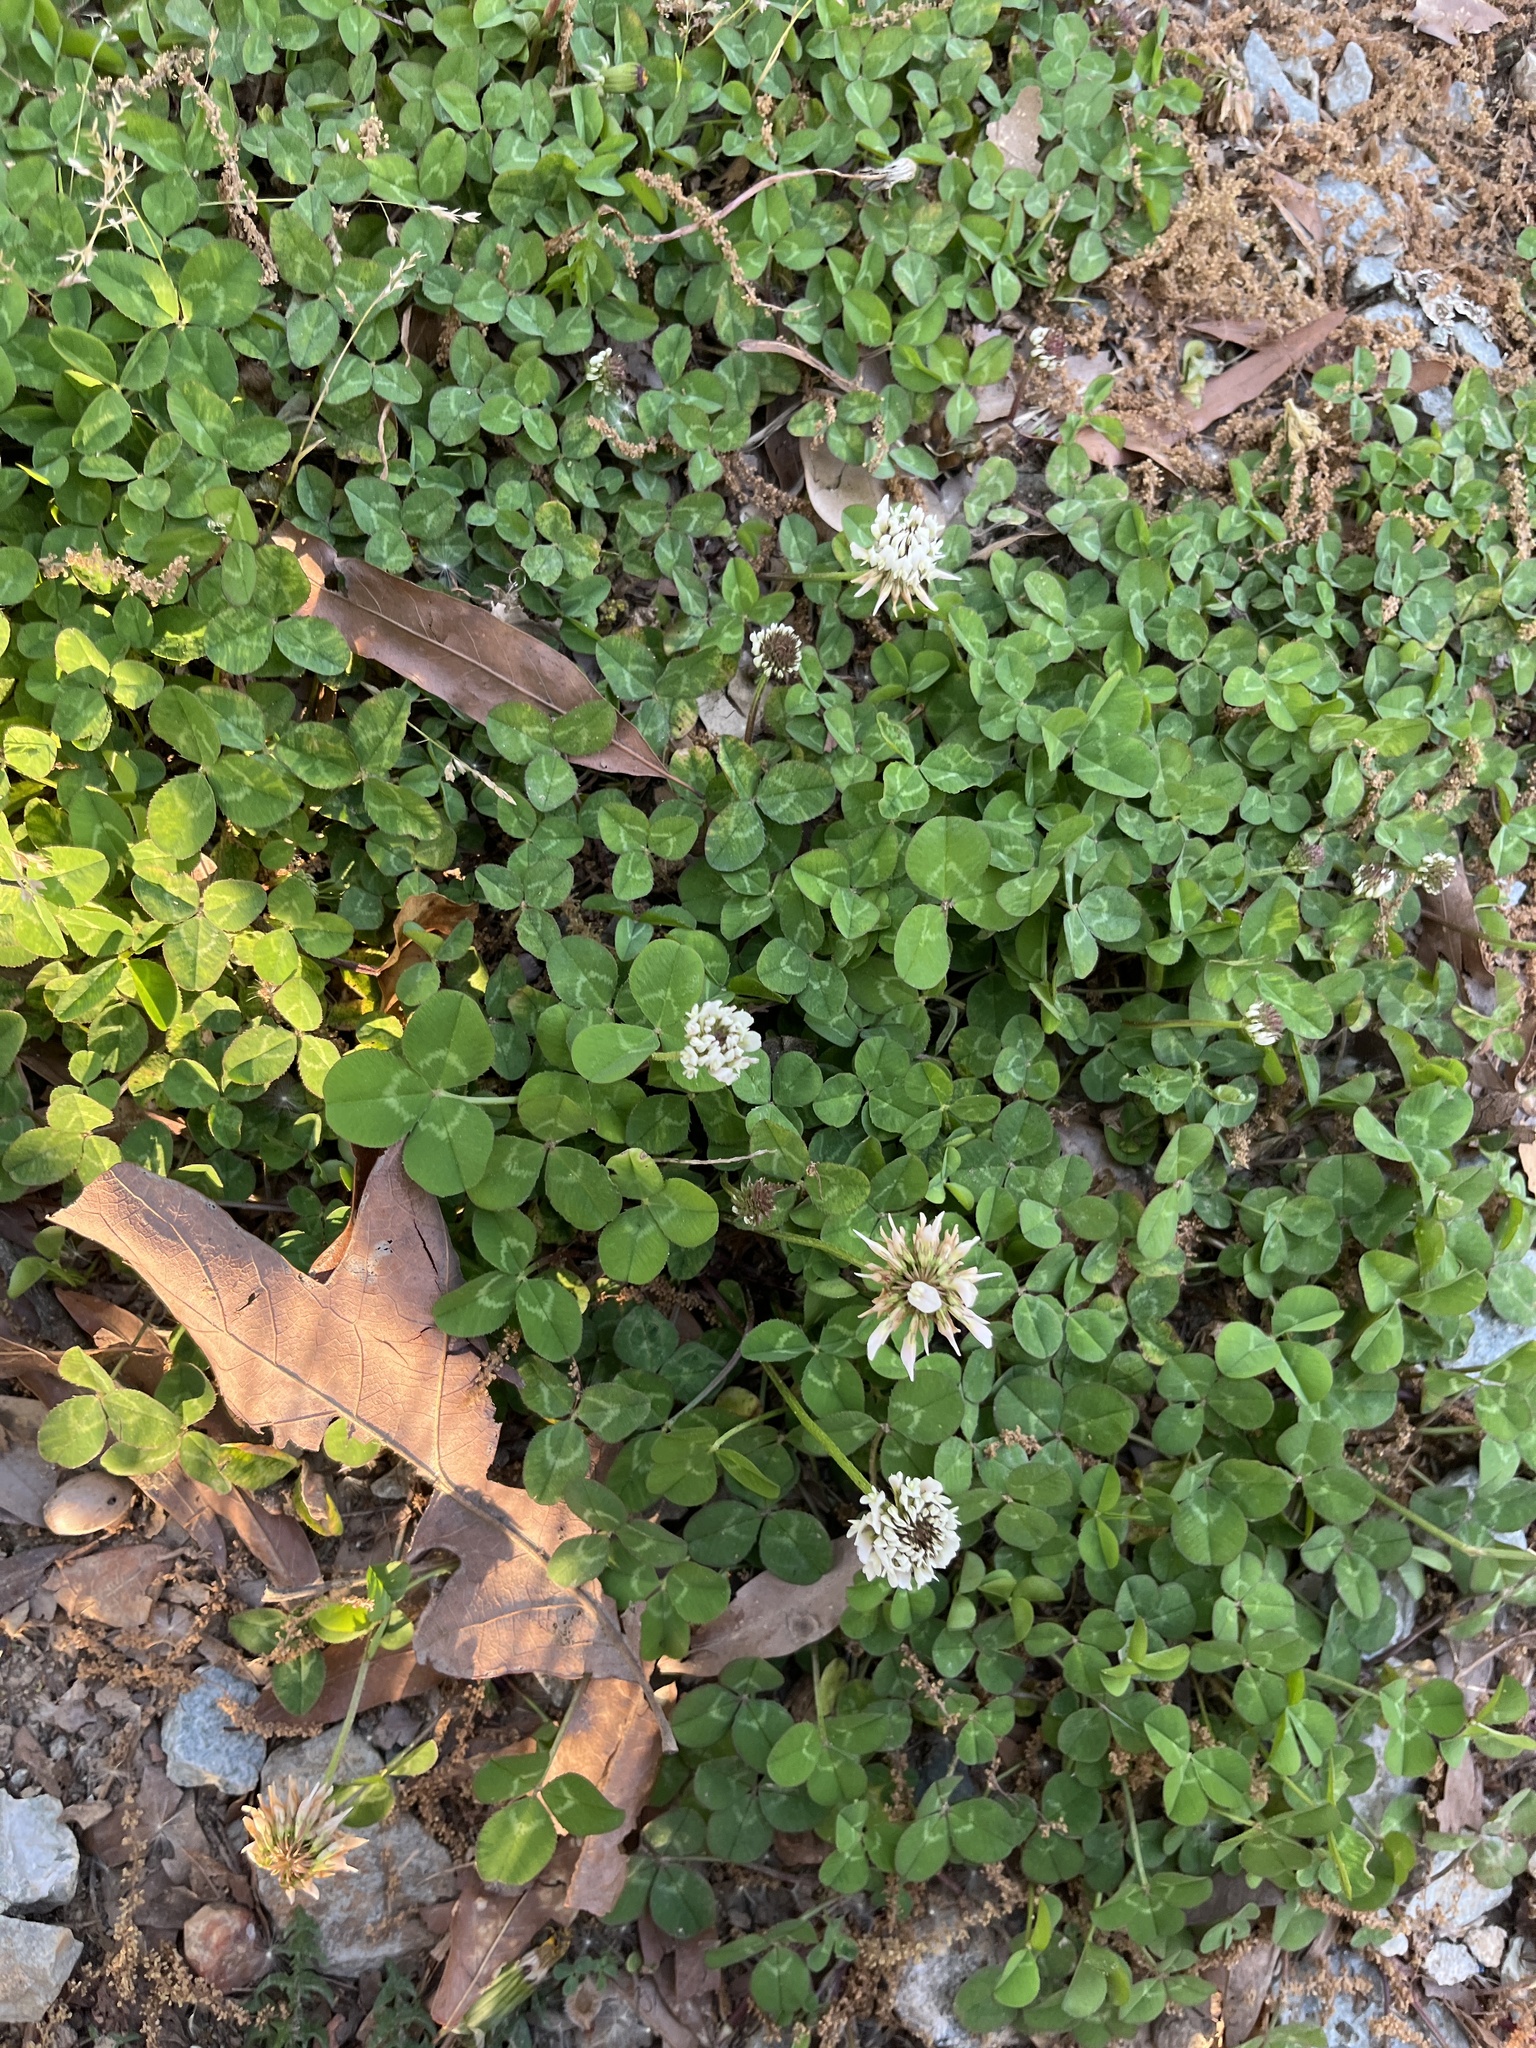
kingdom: Plantae
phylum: Tracheophyta
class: Magnoliopsida
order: Fabales
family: Fabaceae
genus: Trifolium
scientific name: Trifolium repens
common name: White clover
